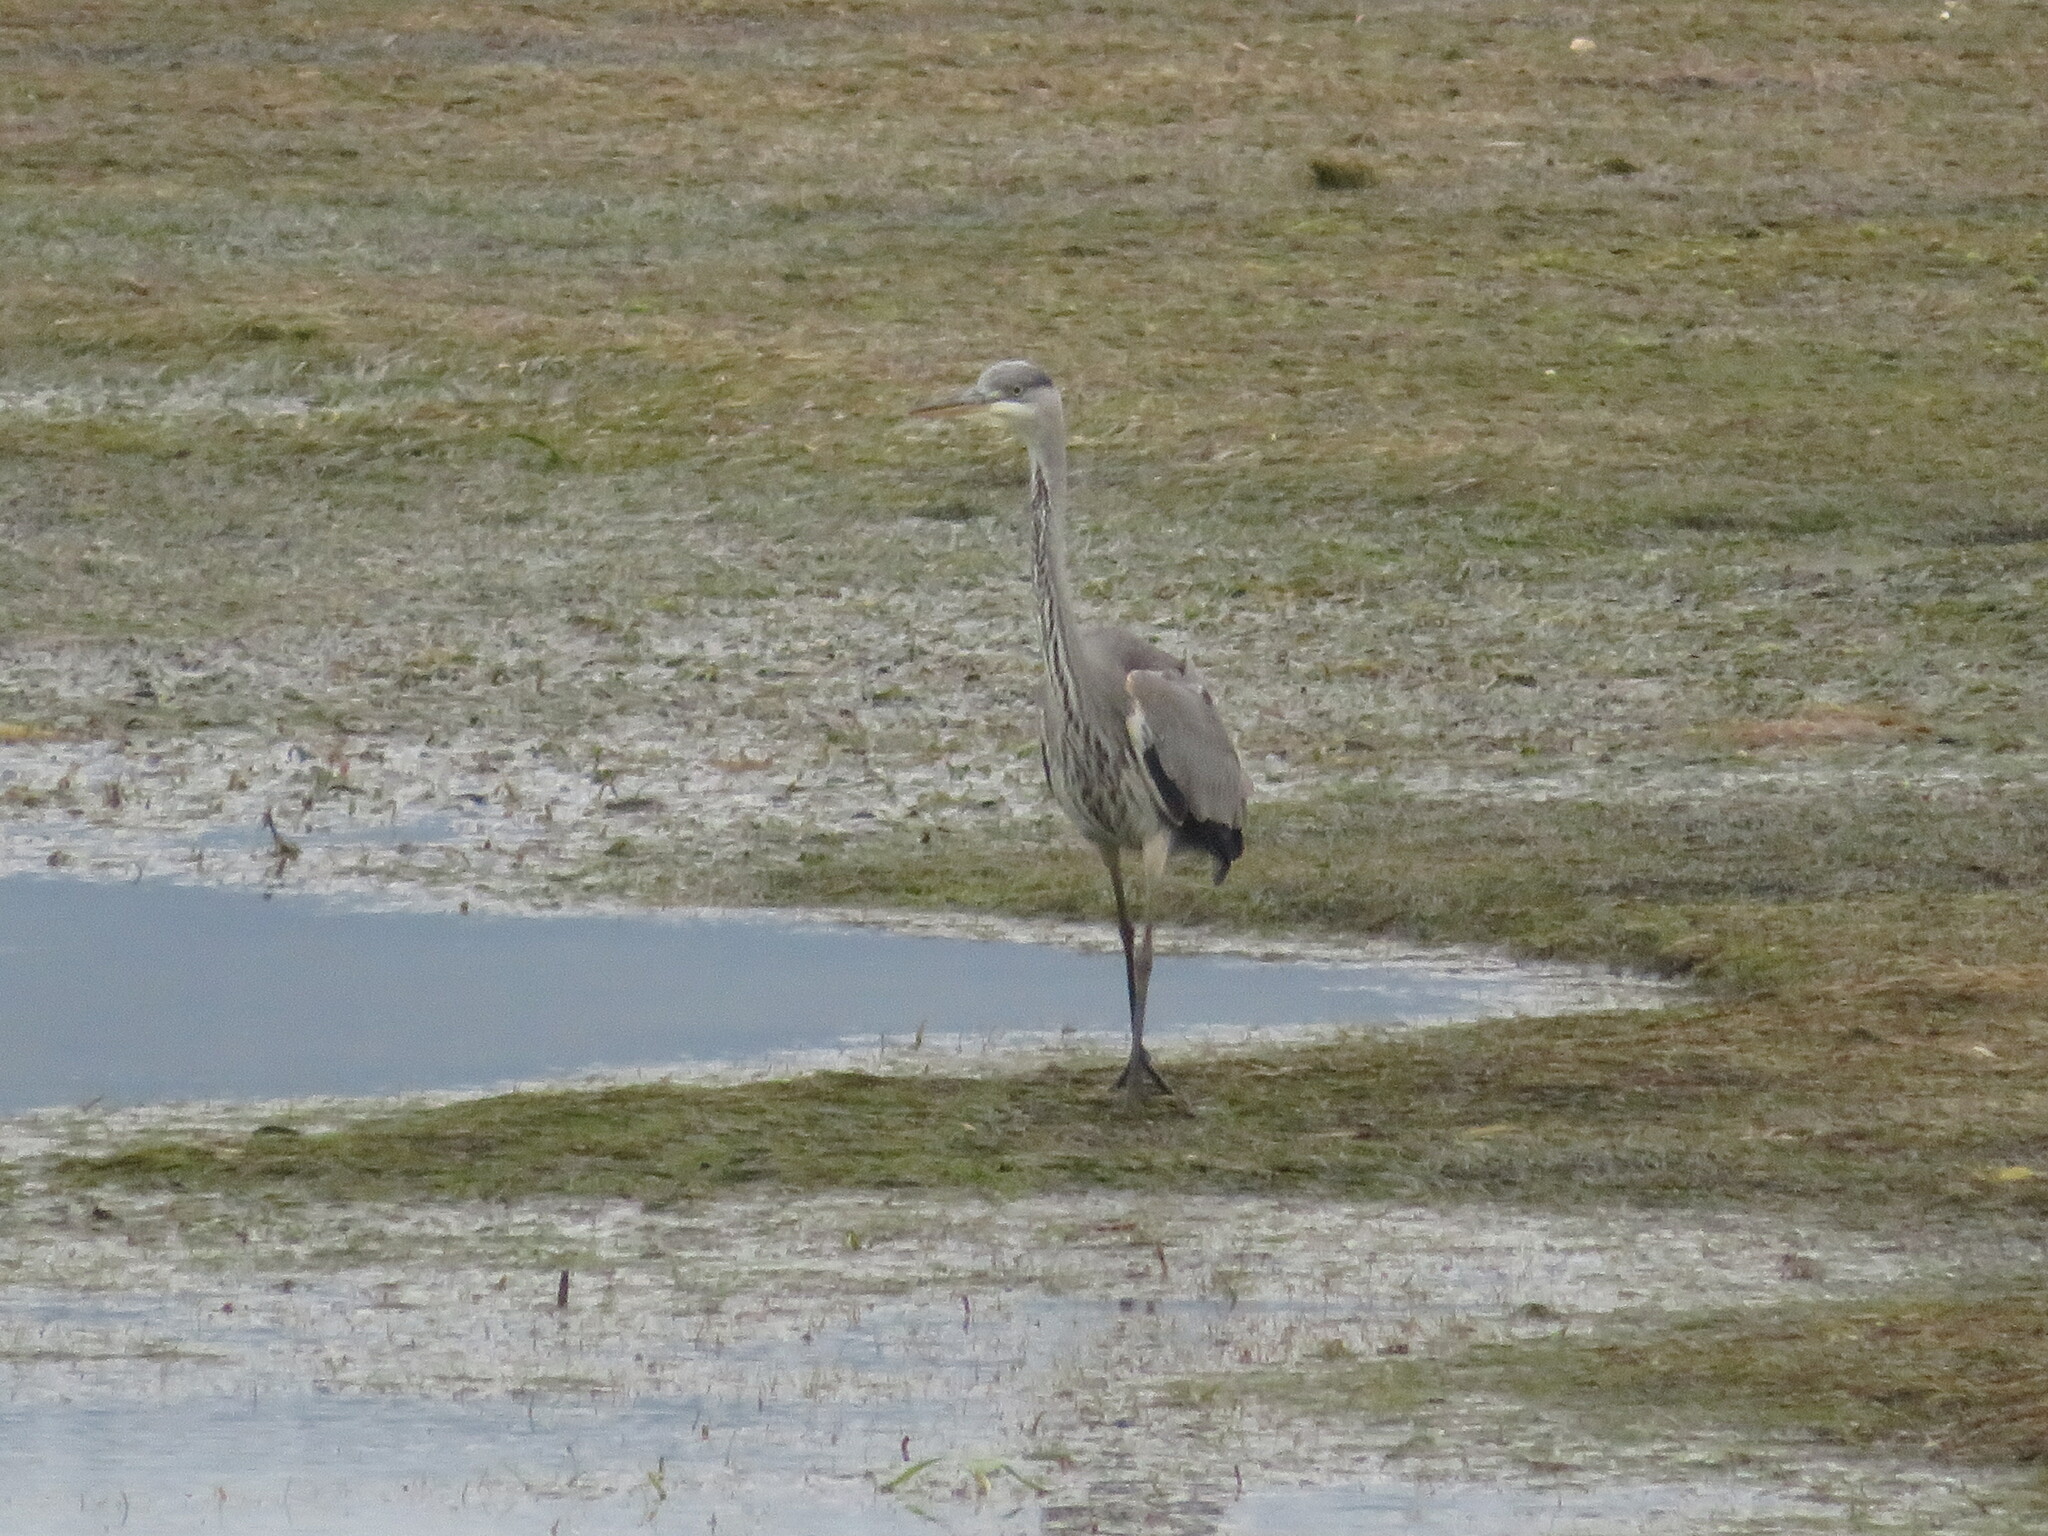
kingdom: Animalia
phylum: Chordata
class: Aves
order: Pelecaniformes
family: Ardeidae
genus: Ardea
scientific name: Ardea cinerea
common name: Grey heron
